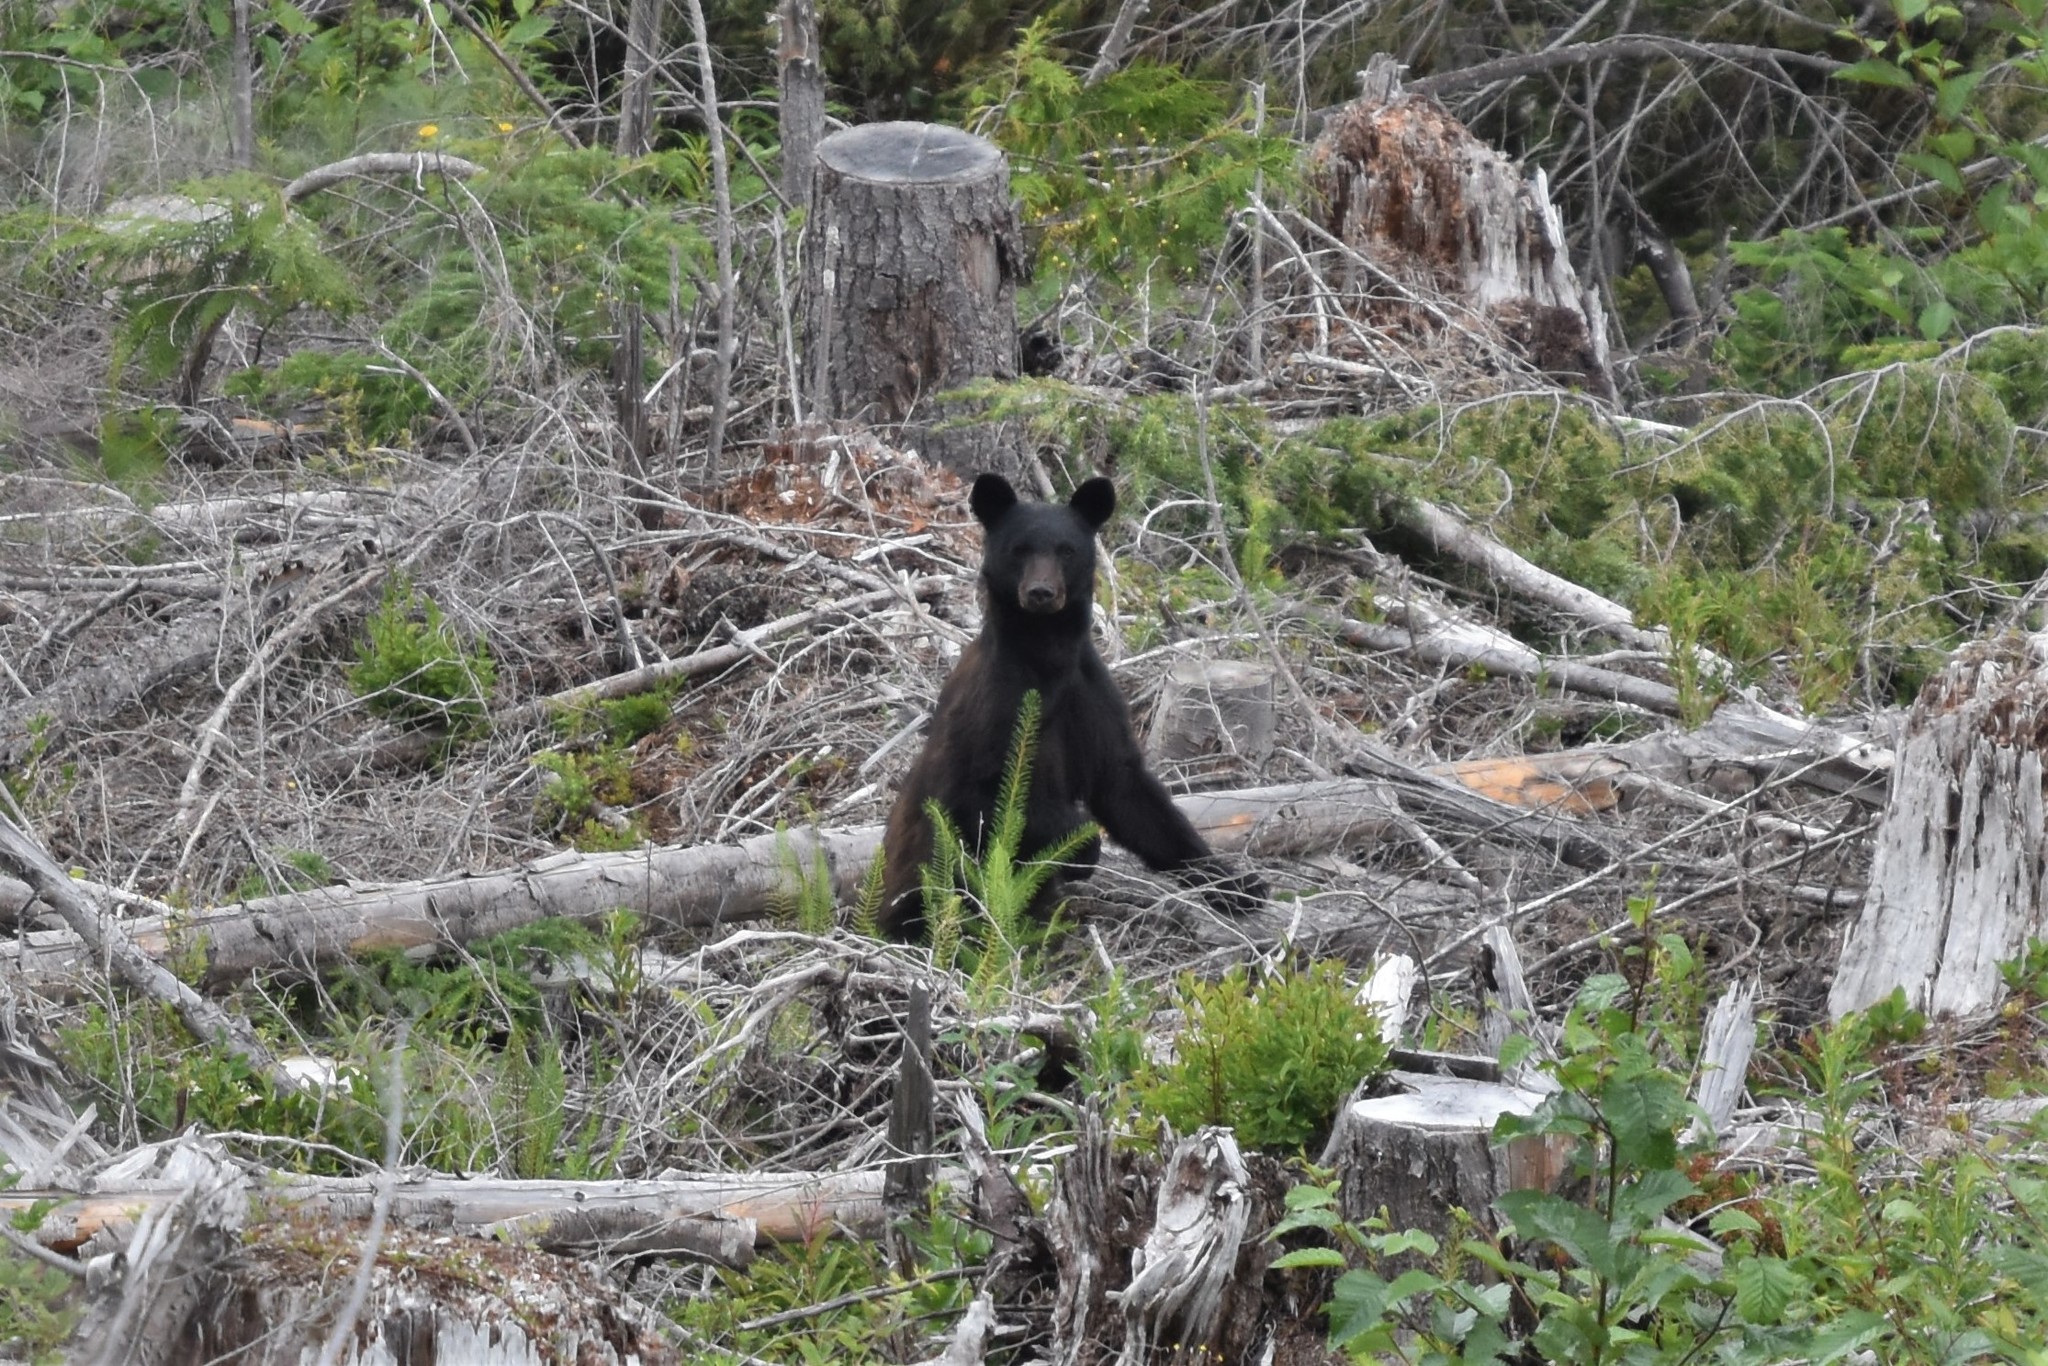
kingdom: Animalia
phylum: Chordata
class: Mammalia
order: Carnivora
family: Ursidae
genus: Ursus
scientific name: Ursus americanus
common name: American black bear
